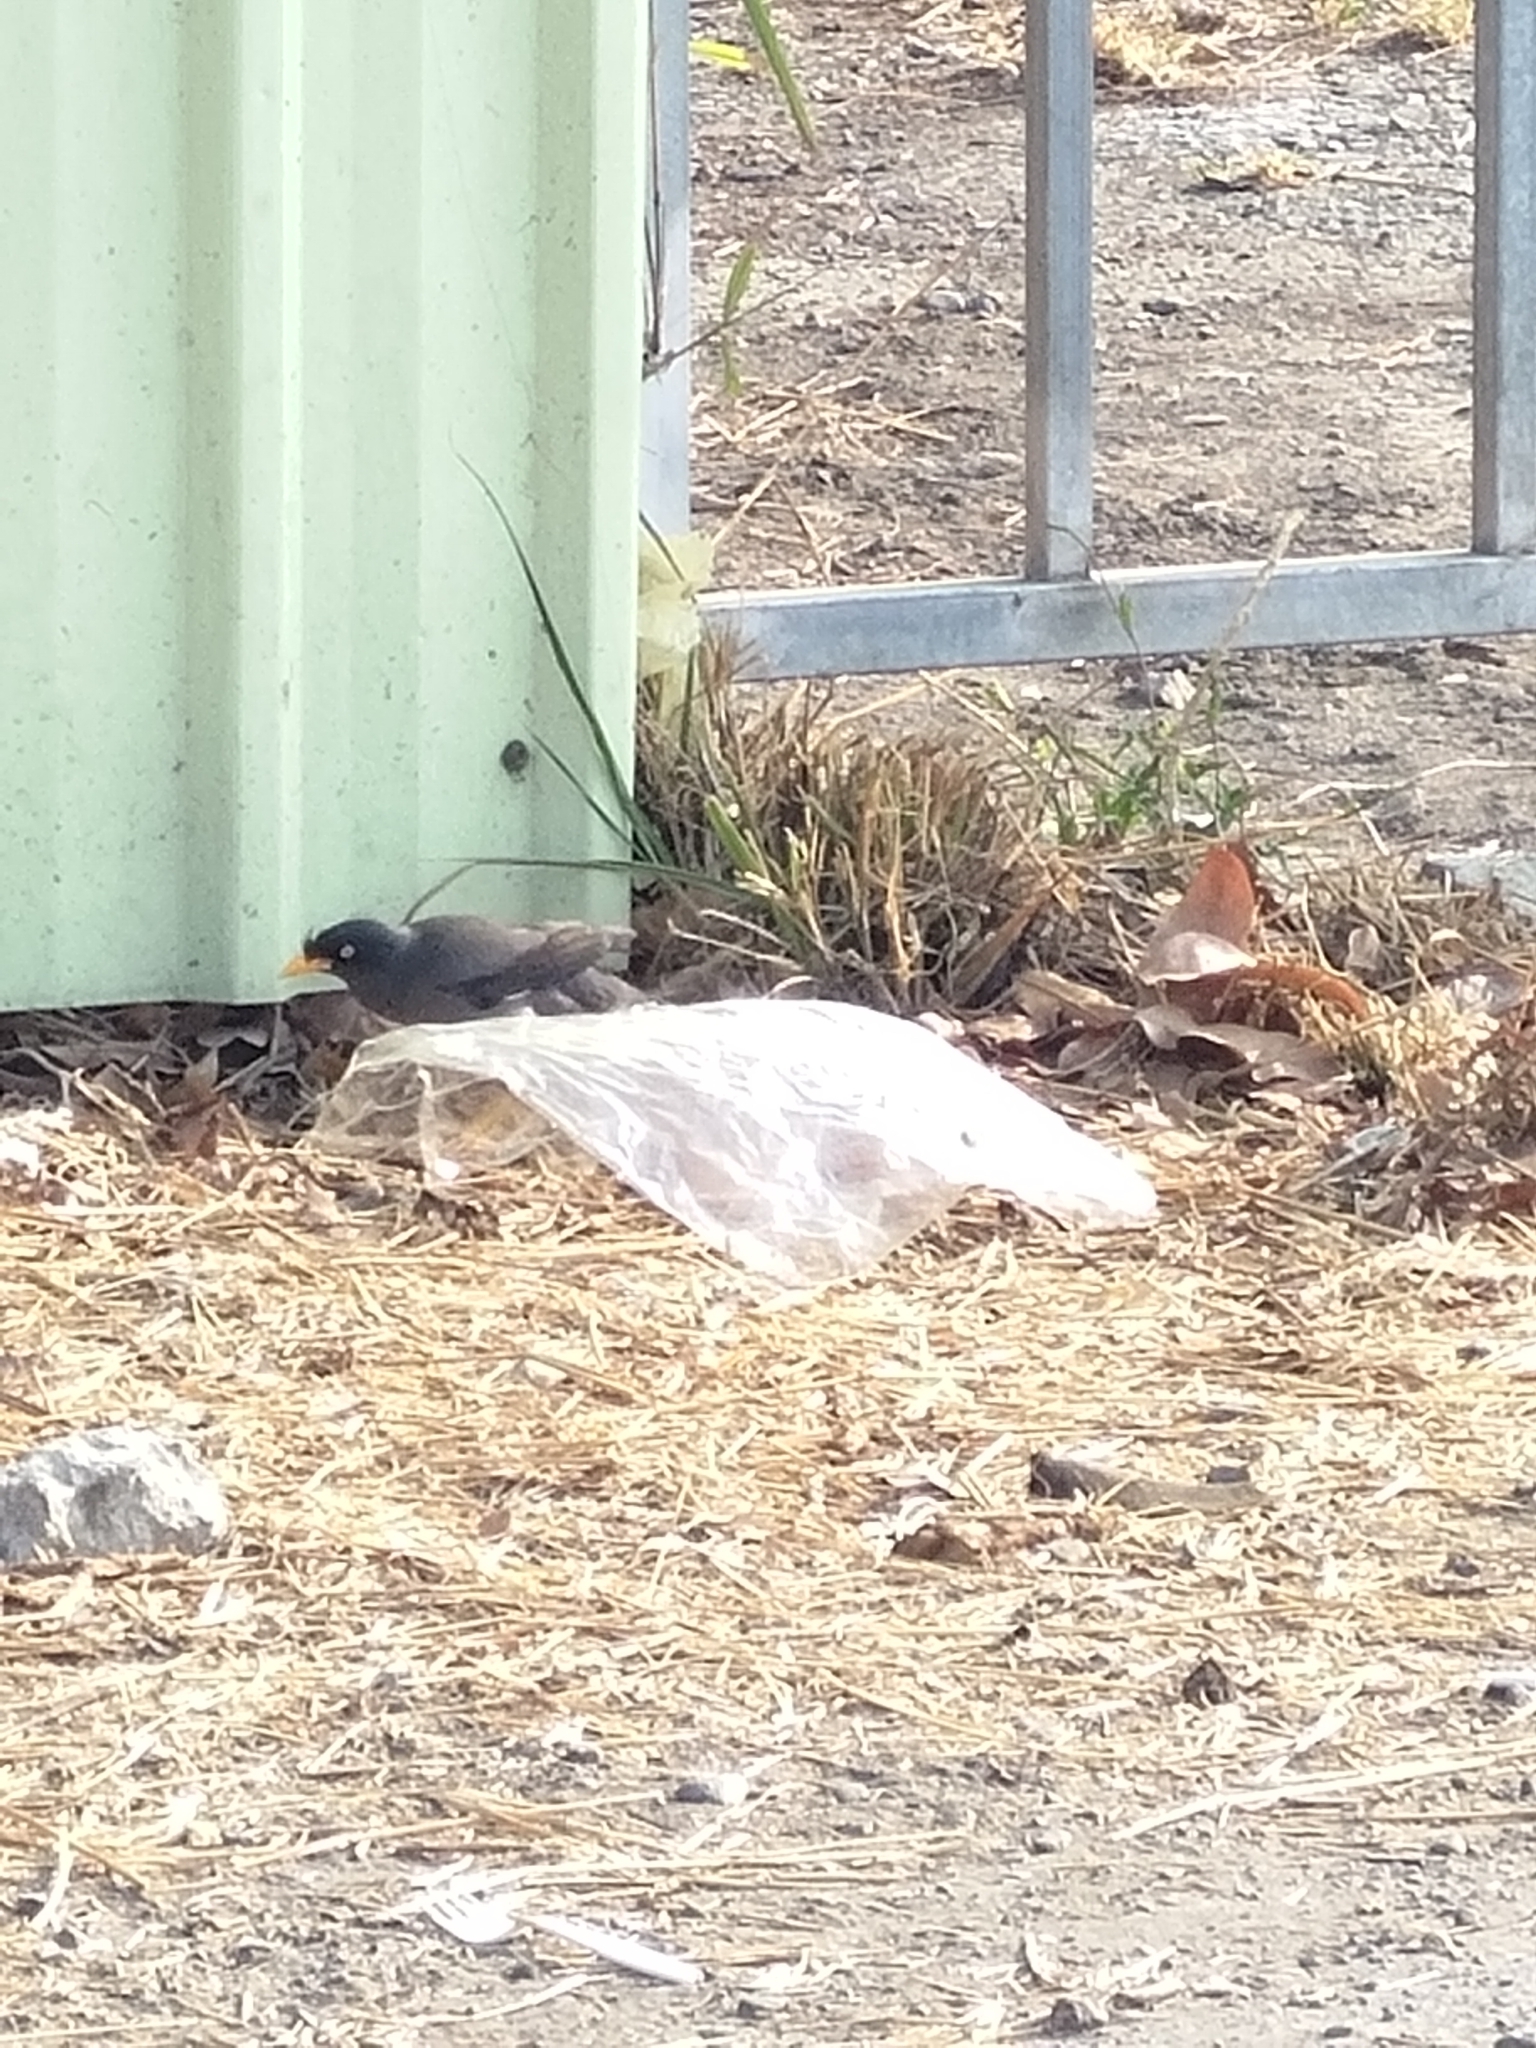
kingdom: Animalia
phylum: Chordata
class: Aves
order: Passeriformes
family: Sturnidae
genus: Acridotheres
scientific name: Acridotheres javanicus
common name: Javan myna
